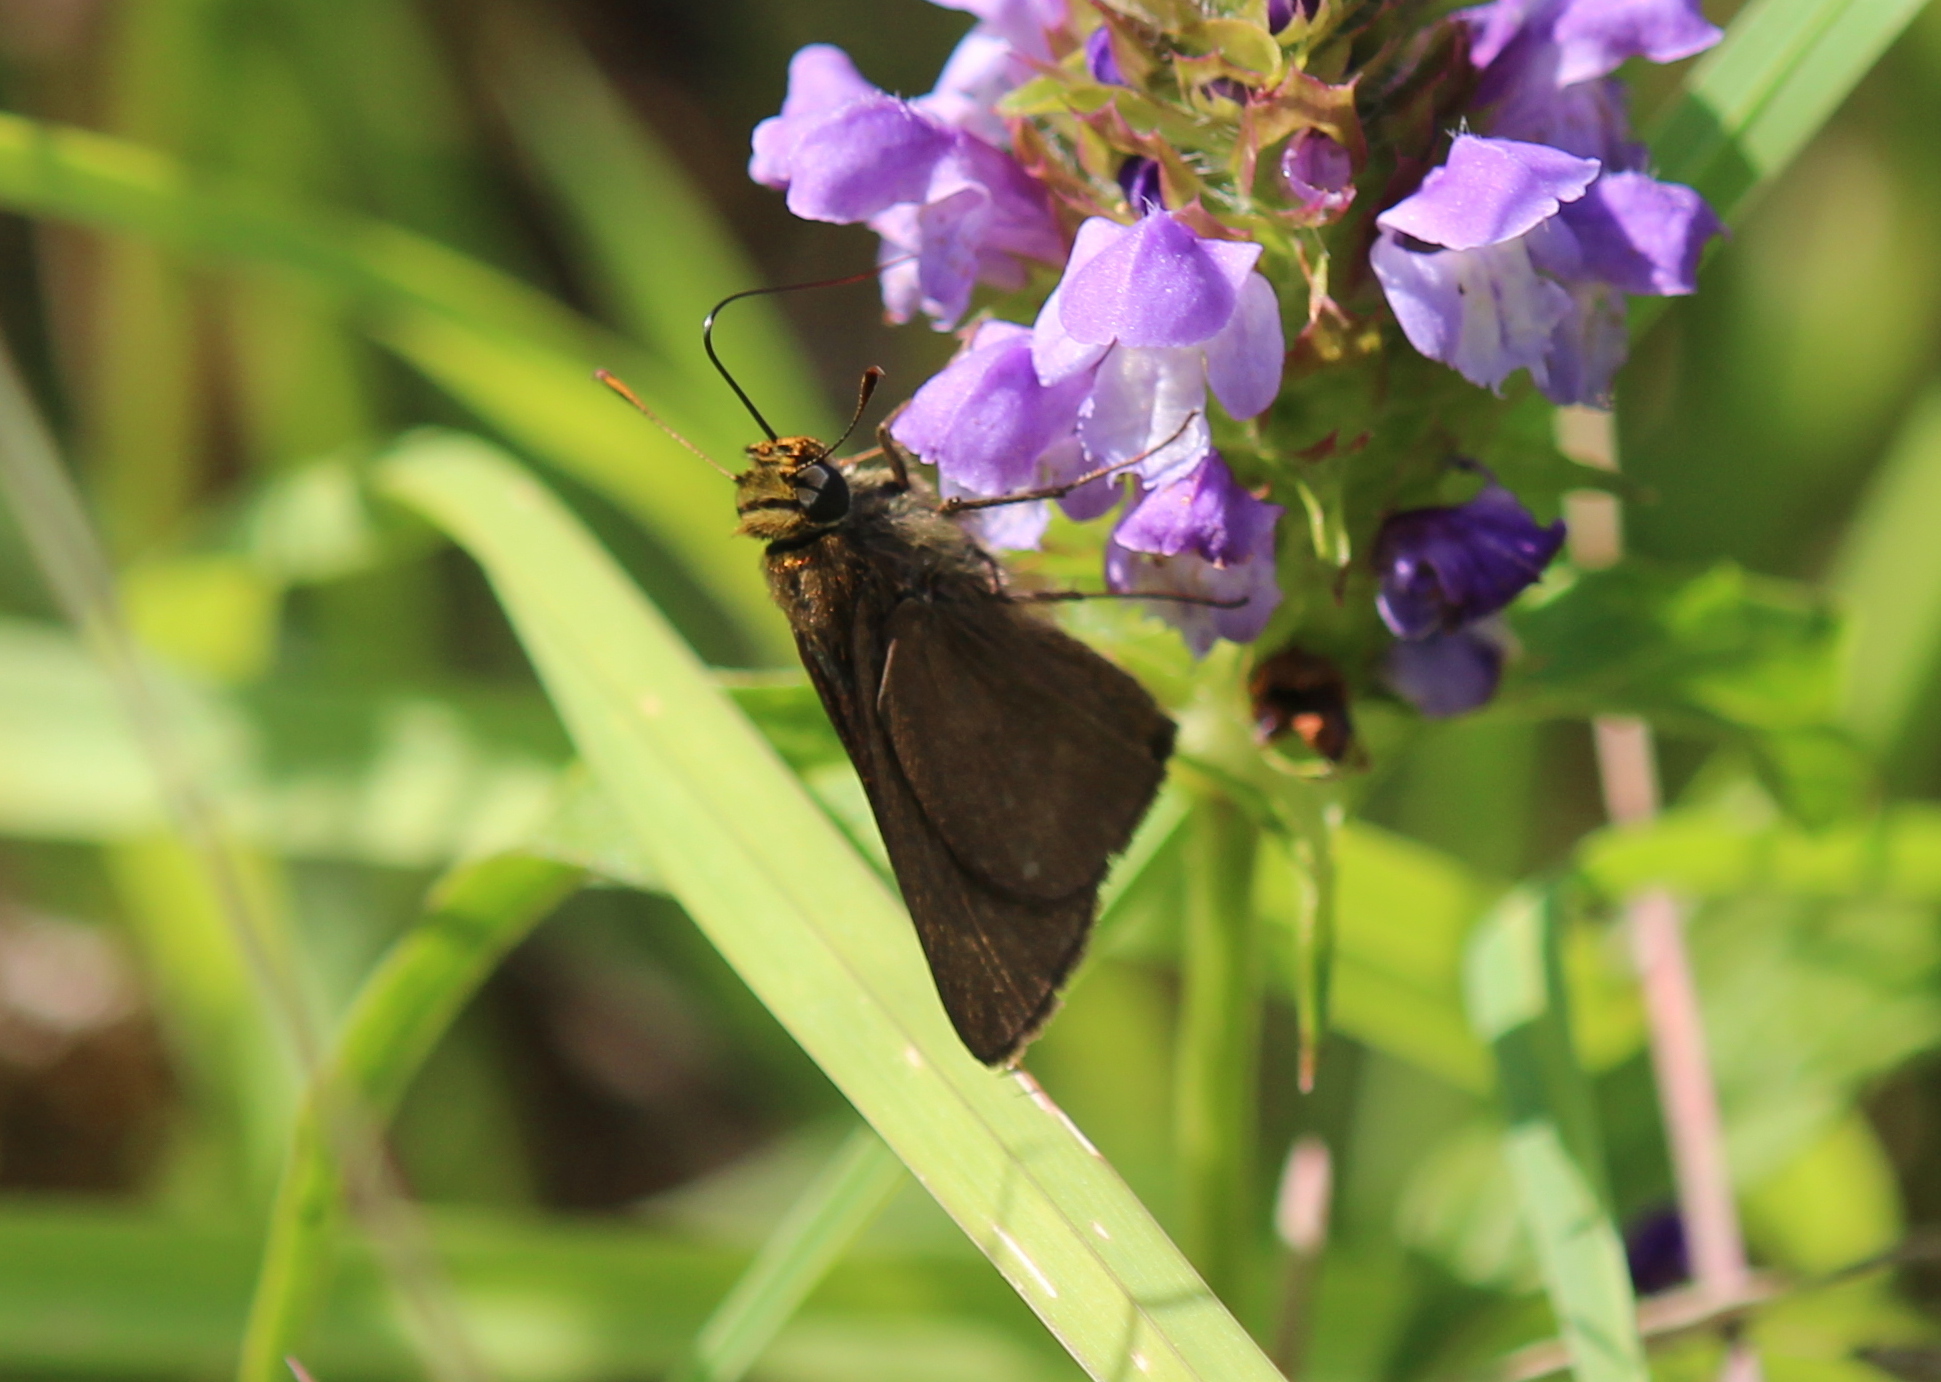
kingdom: Animalia
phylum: Arthropoda
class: Insecta
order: Lepidoptera
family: Hesperiidae
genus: Euphyes
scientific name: Euphyes vestris
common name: Dun skipper
